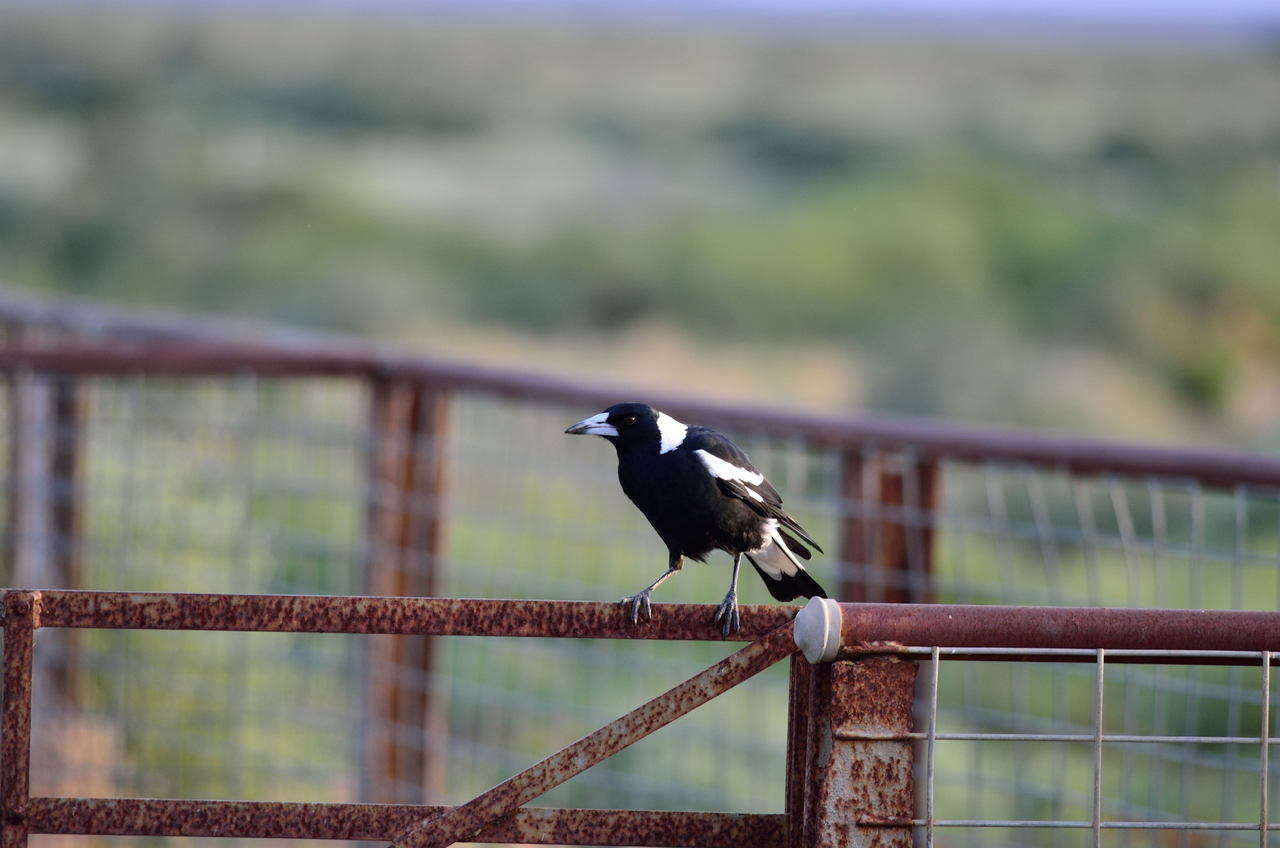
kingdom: Animalia
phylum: Chordata
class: Aves
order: Passeriformes
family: Cracticidae
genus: Gymnorhina
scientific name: Gymnorhina tibicen
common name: Australian magpie
